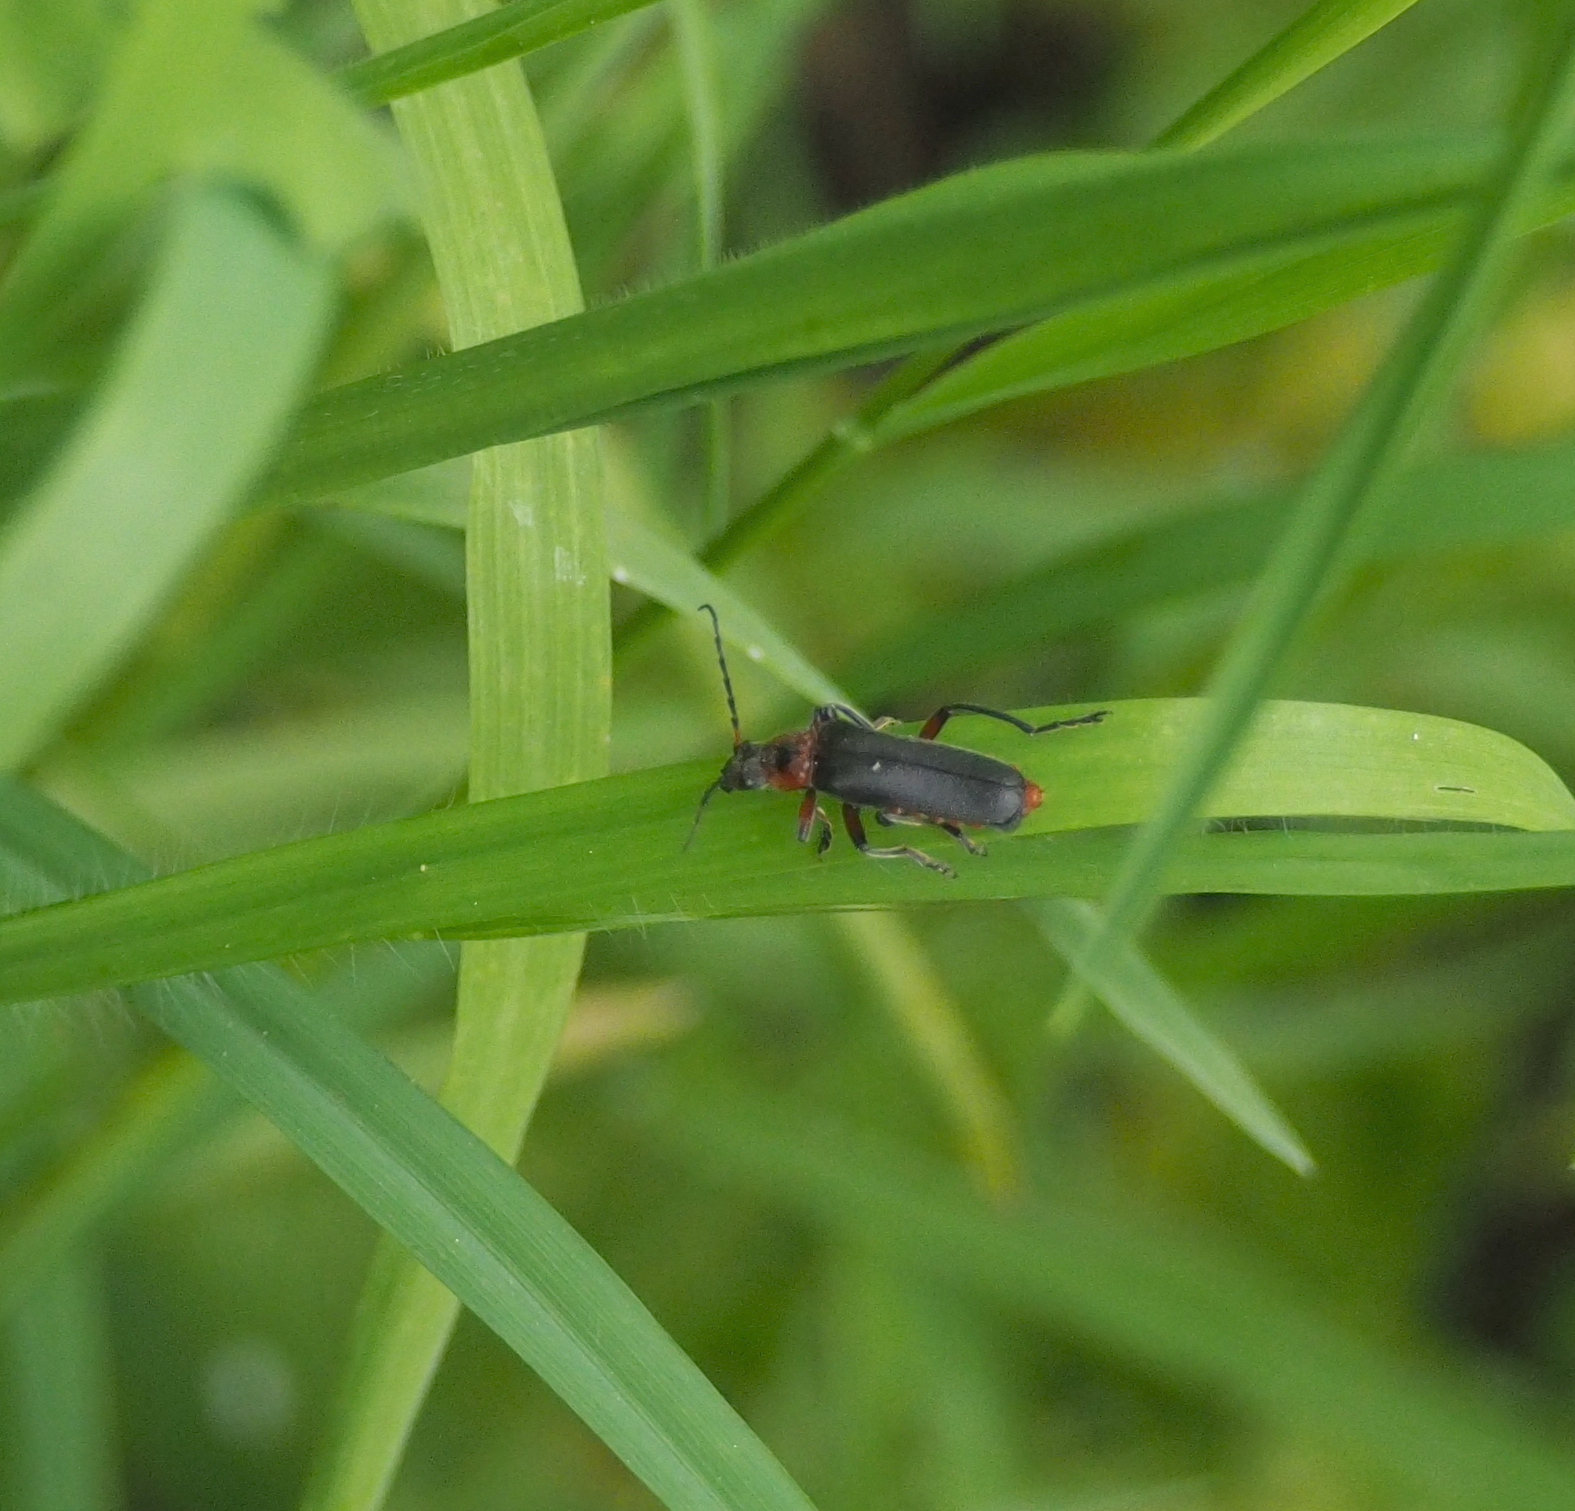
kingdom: Animalia
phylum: Arthropoda
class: Insecta
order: Coleoptera
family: Cantharidae
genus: Cantharis
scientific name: Cantharis rustica
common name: Soldier beetle
